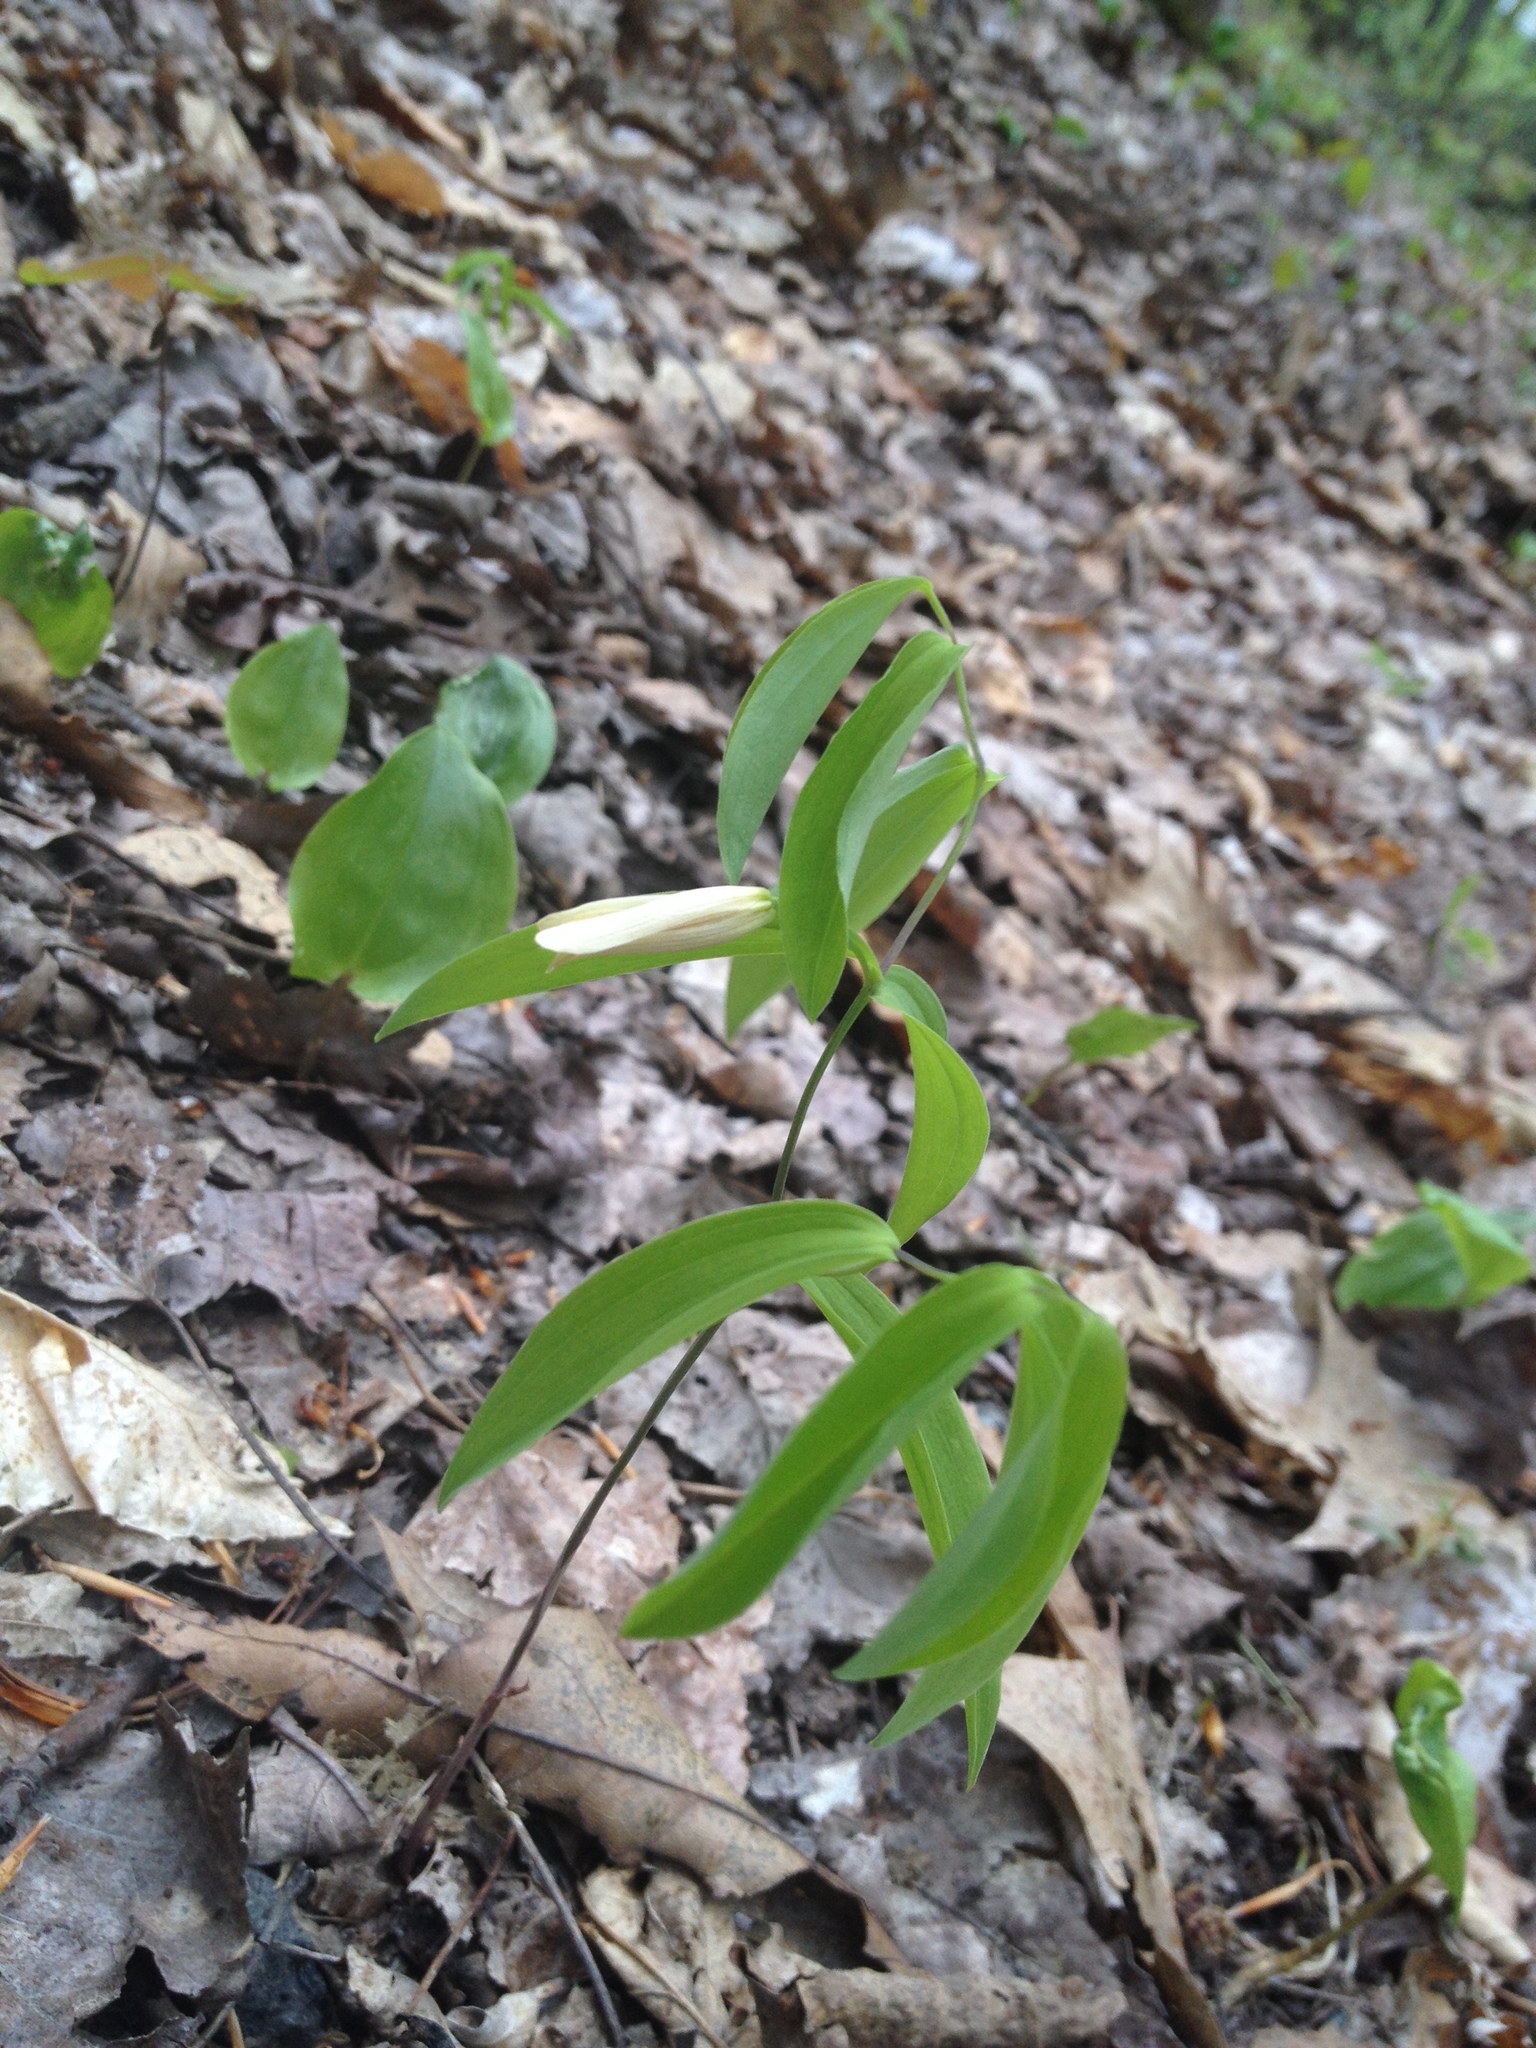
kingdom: Plantae
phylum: Tracheophyta
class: Liliopsida
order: Liliales
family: Colchicaceae
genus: Uvularia
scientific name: Uvularia sessilifolia
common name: Straw-lily
